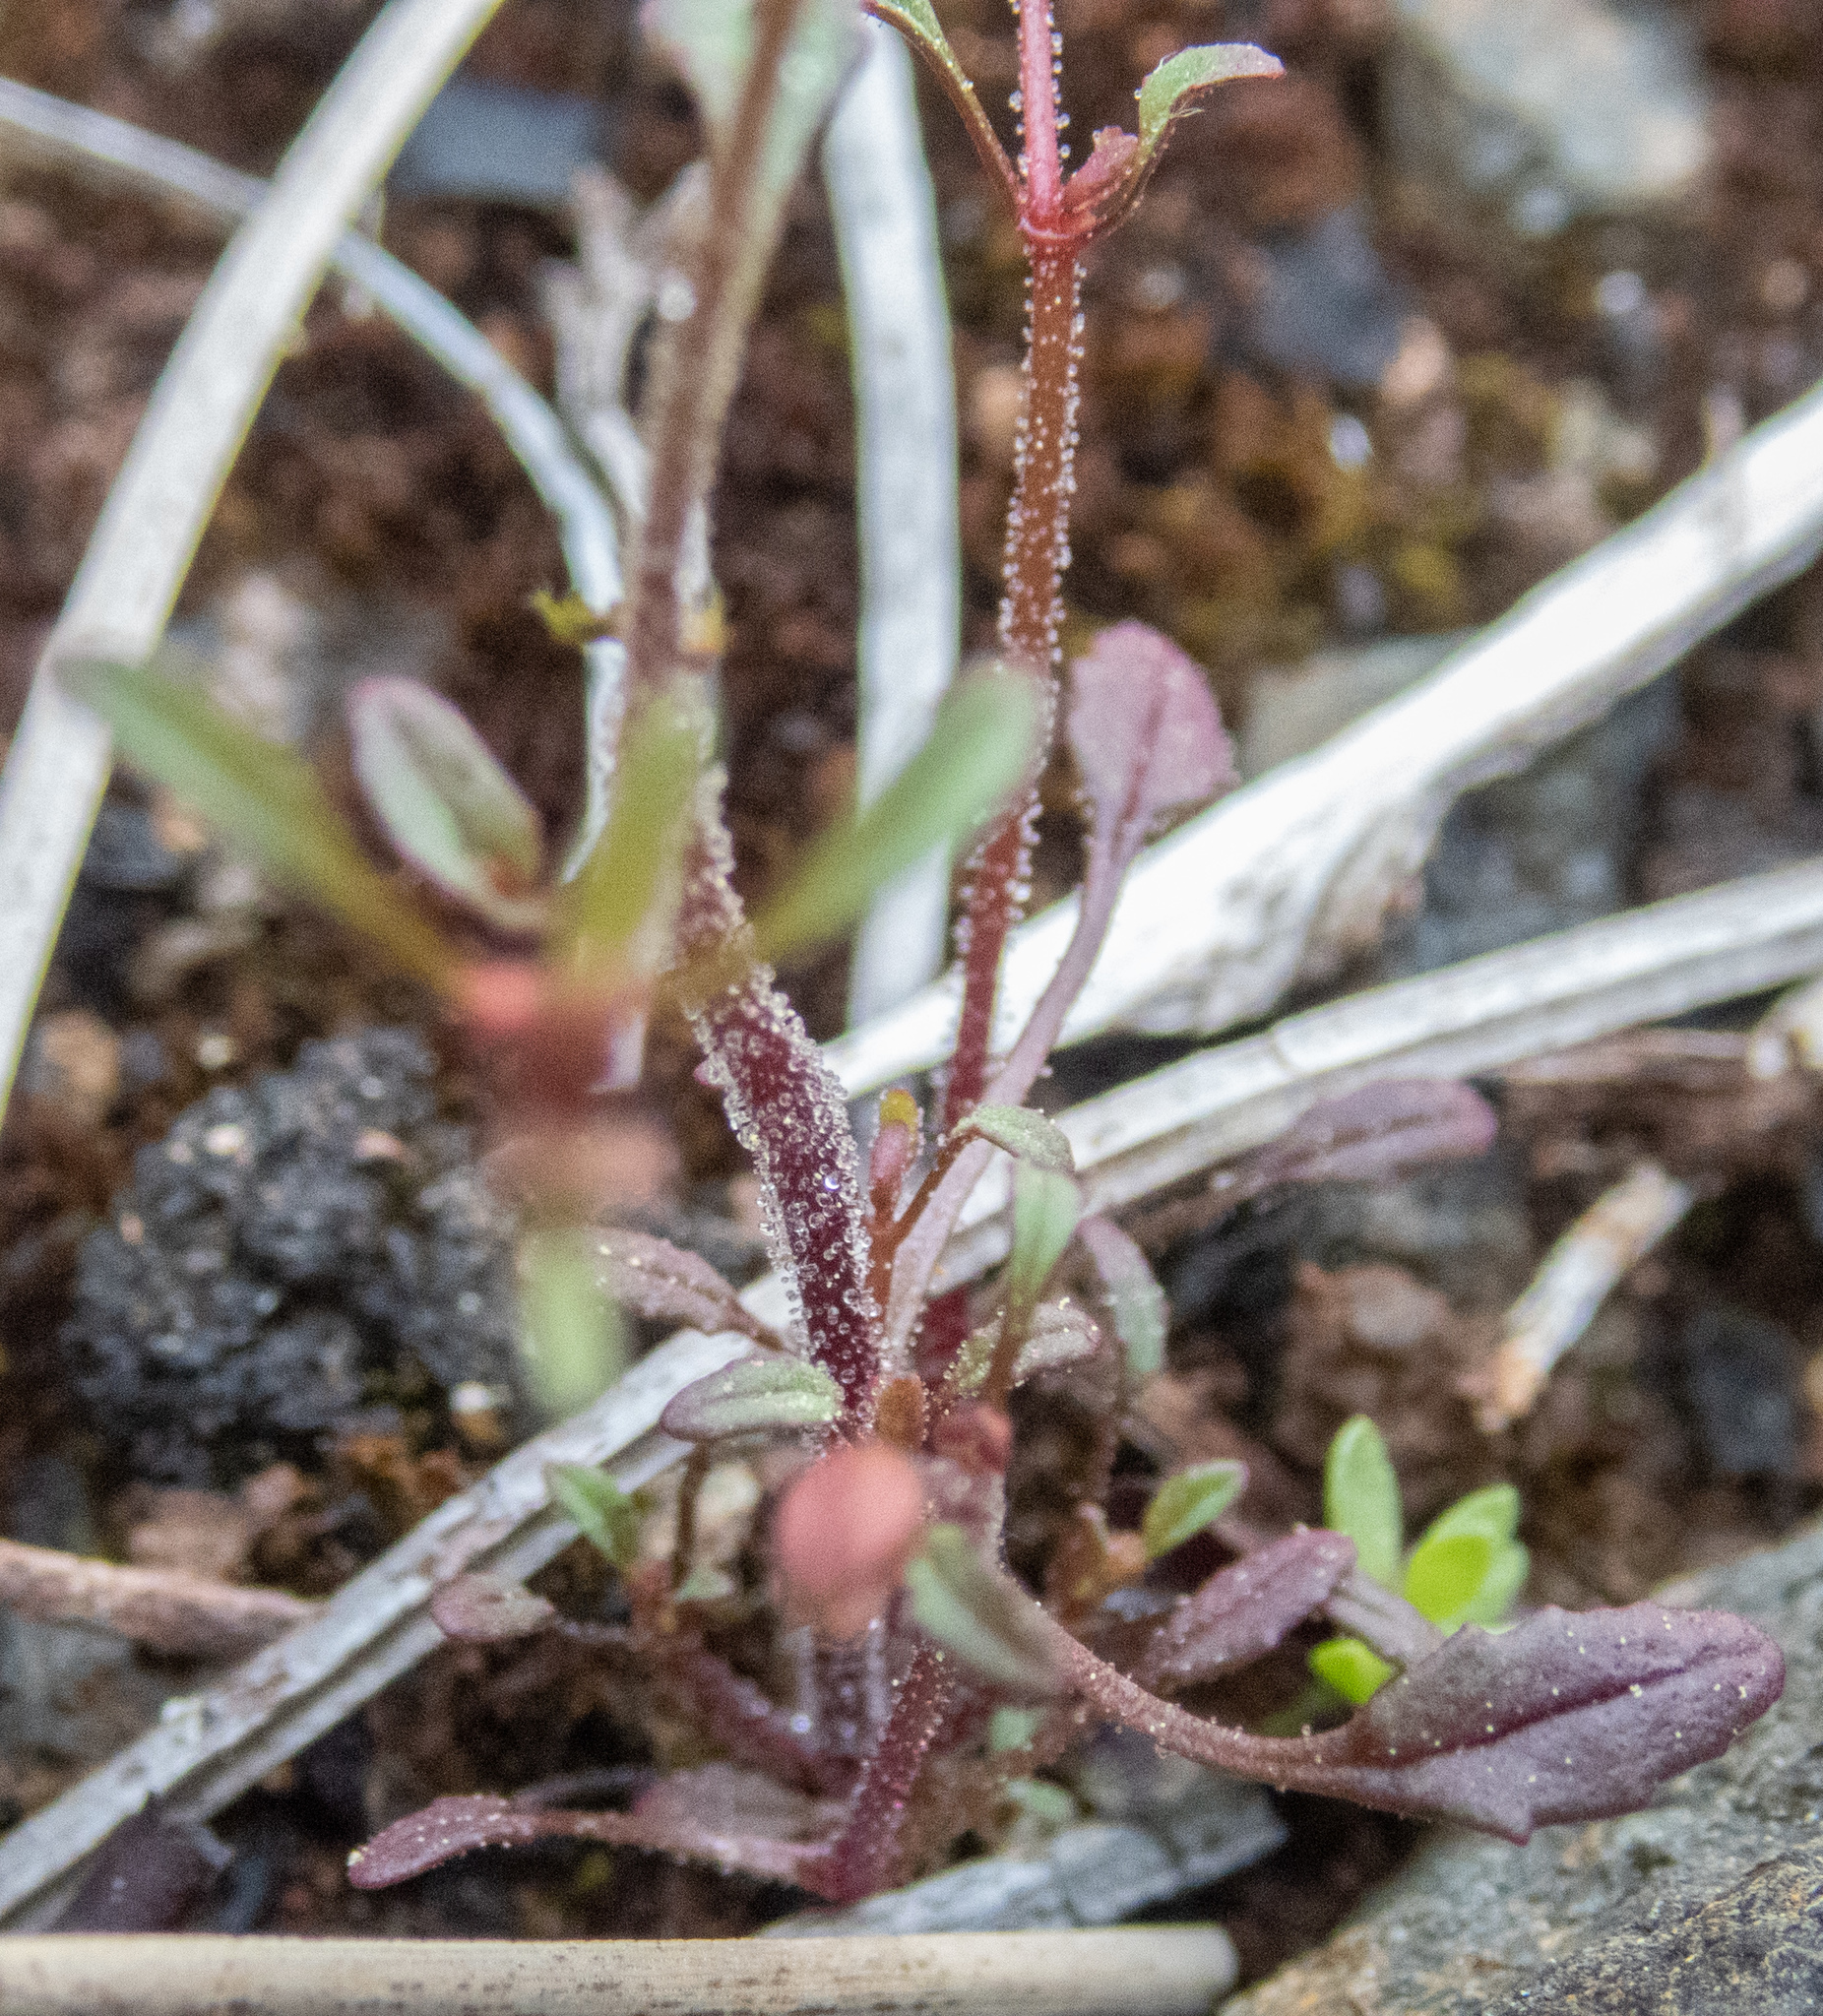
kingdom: Plantae
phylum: Tracheophyta
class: Magnoliopsida
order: Lamiales
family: Phrymaceae
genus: Erythranthe
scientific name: Erythranthe nudata
